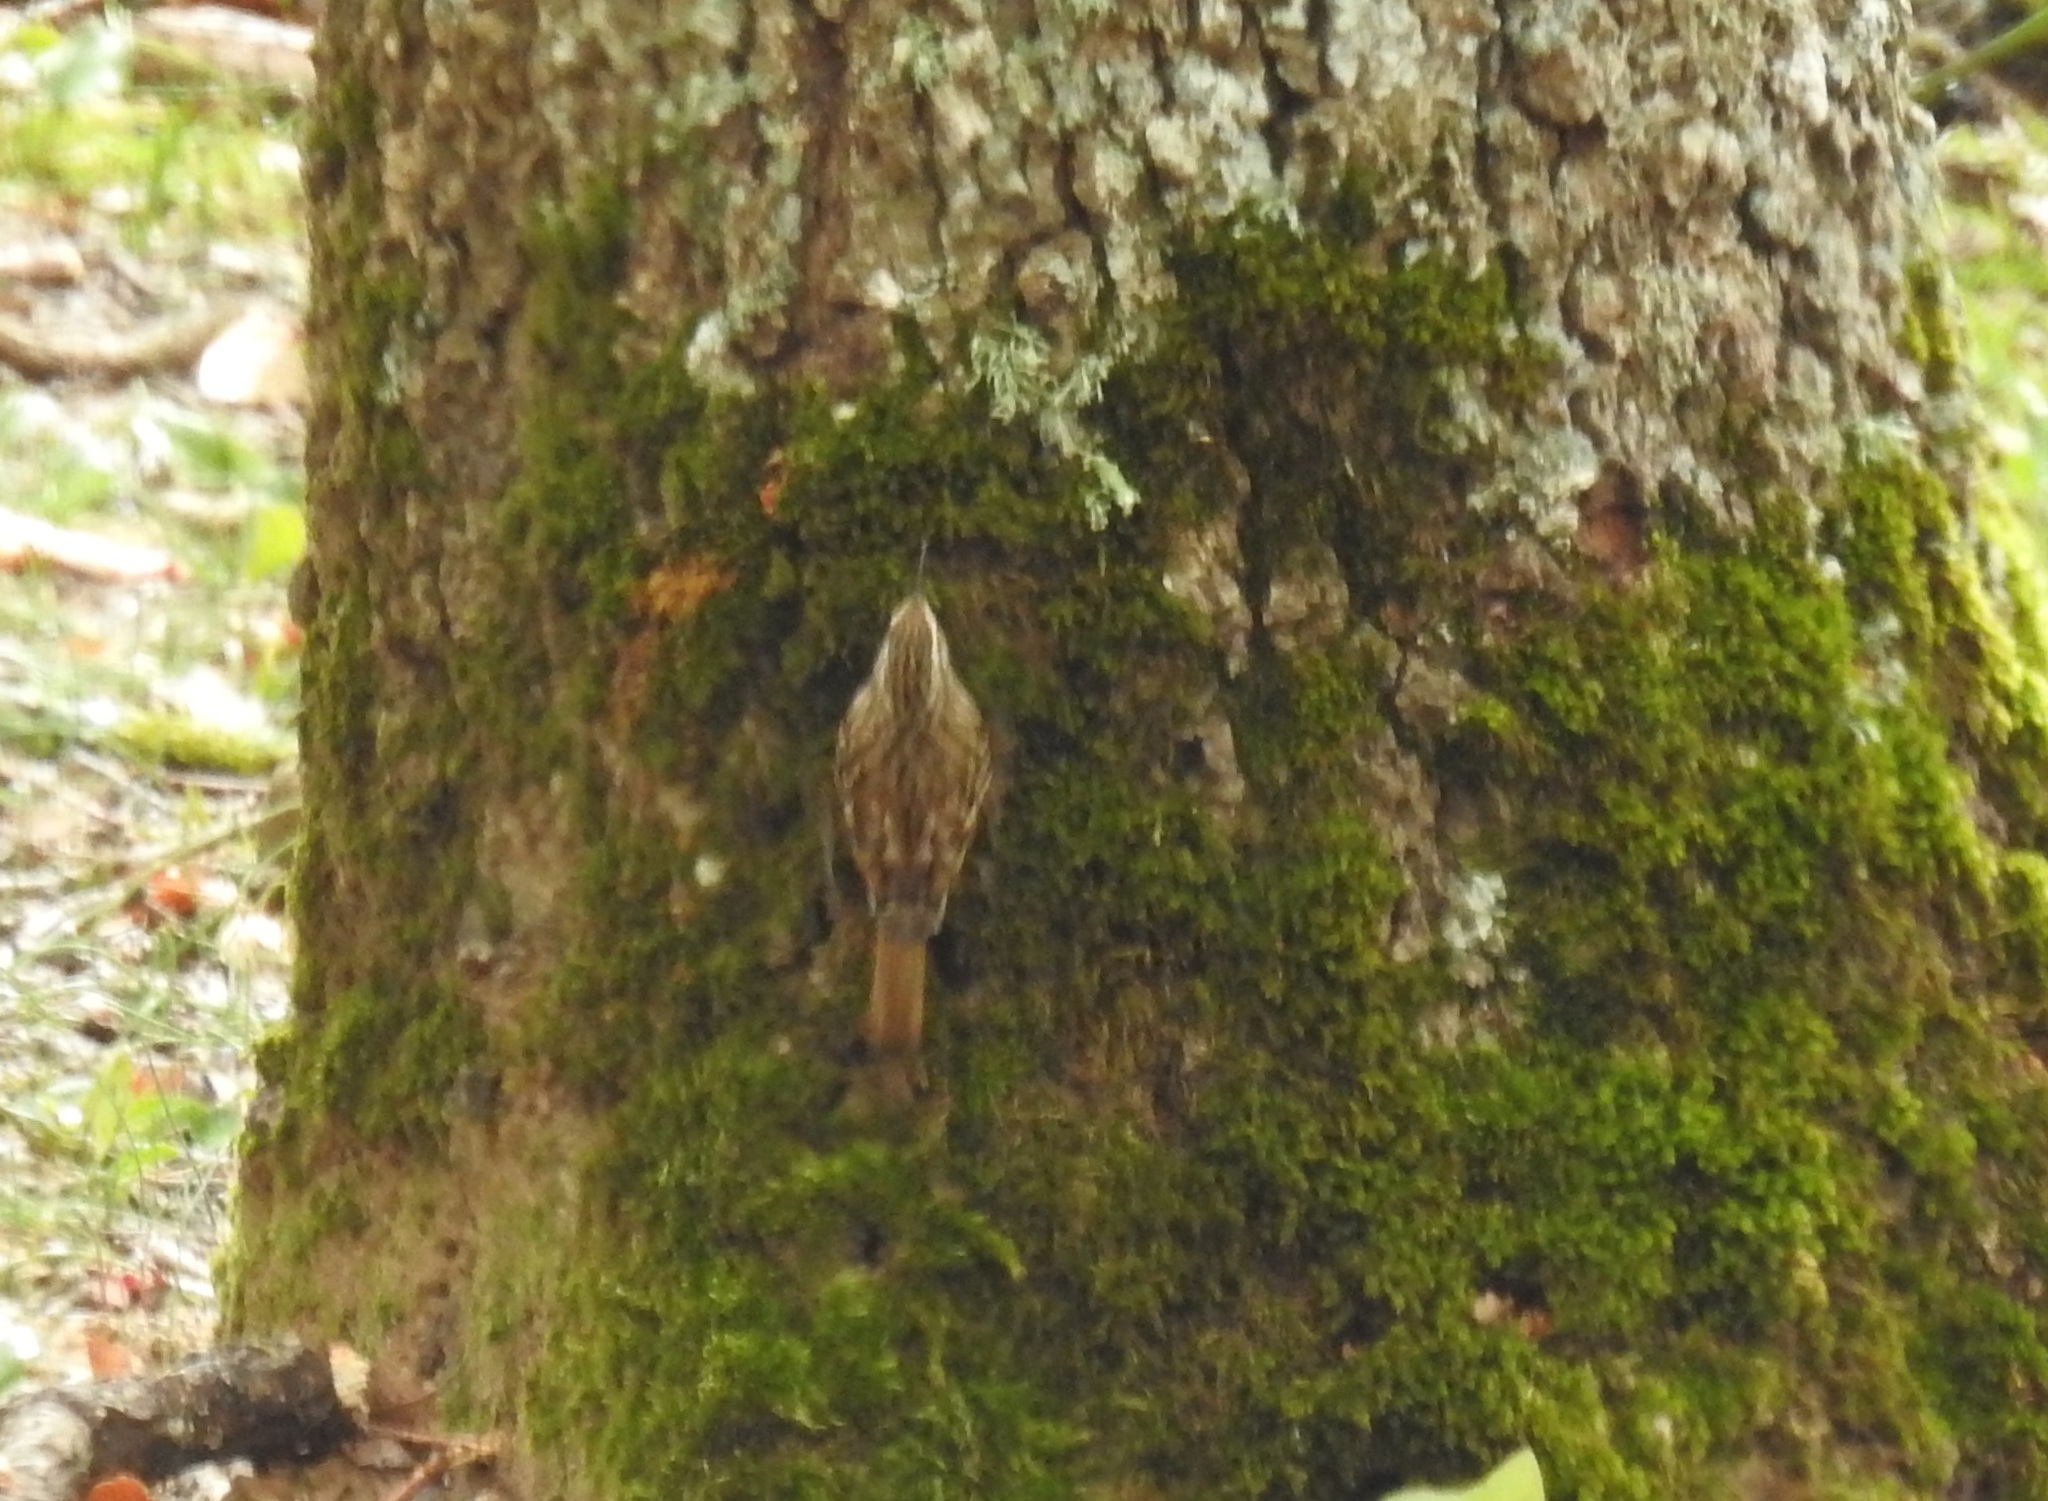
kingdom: Animalia
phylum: Chordata
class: Aves
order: Passeriformes
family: Certhiidae
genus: Certhia
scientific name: Certhia brachydactyla
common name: Short-toed treecreeper
